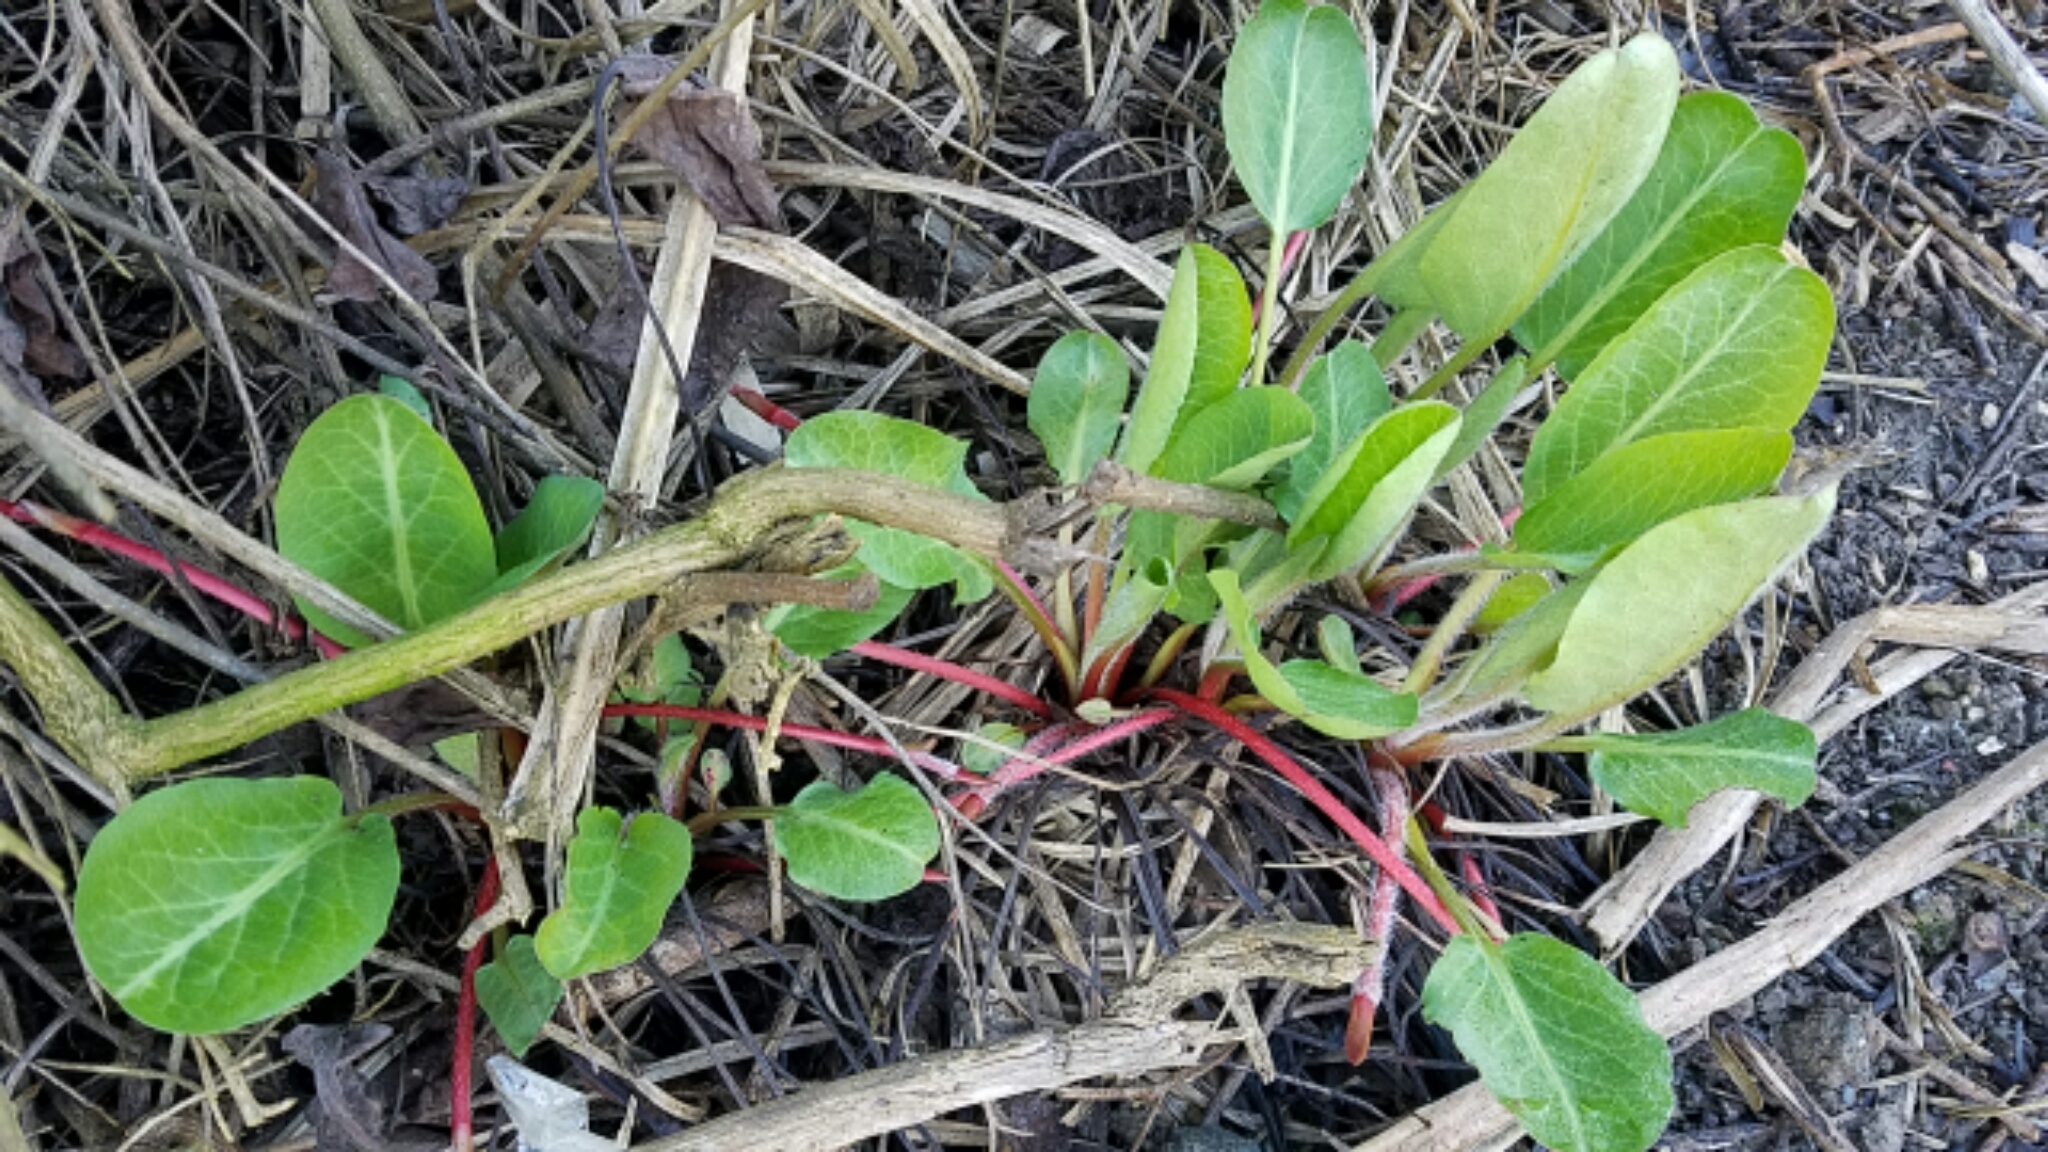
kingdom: Plantae
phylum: Tracheophyta
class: Magnoliopsida
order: Piperales
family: Saururaceae
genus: Anemopsis
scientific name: Anemopsis californica
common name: Apache-beads
